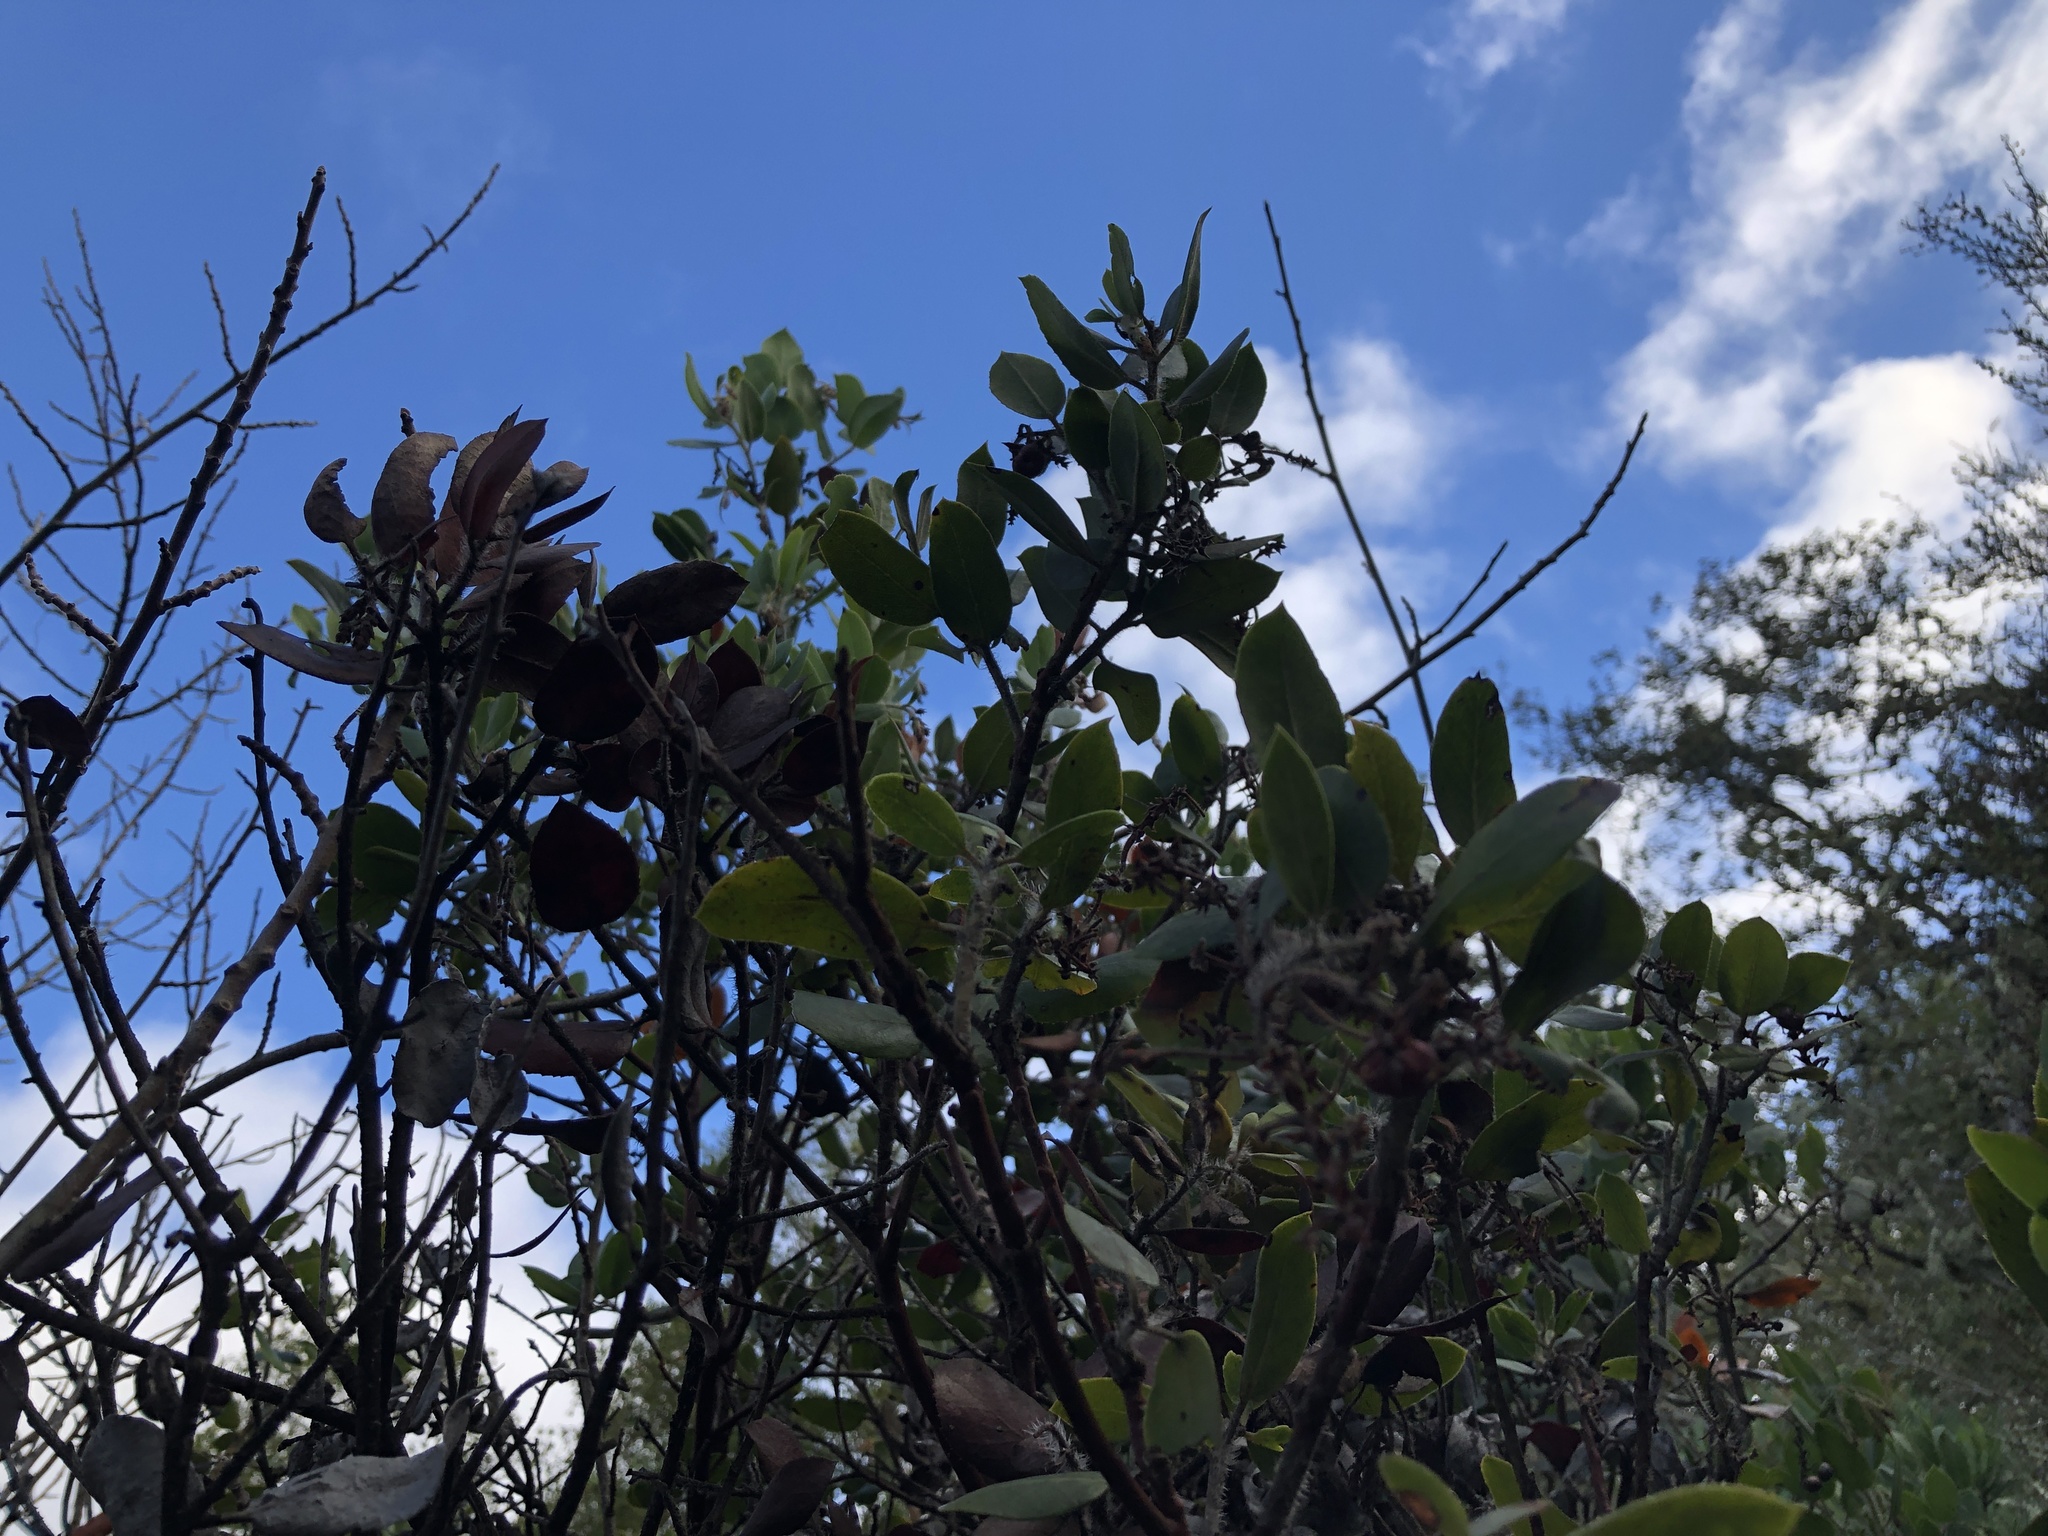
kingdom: Plantae
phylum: Tracheophyta
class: Magnoliopsida
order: Ericales
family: Ericaceae
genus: Arctostaphylos
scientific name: Arctostaphylos crustacea
